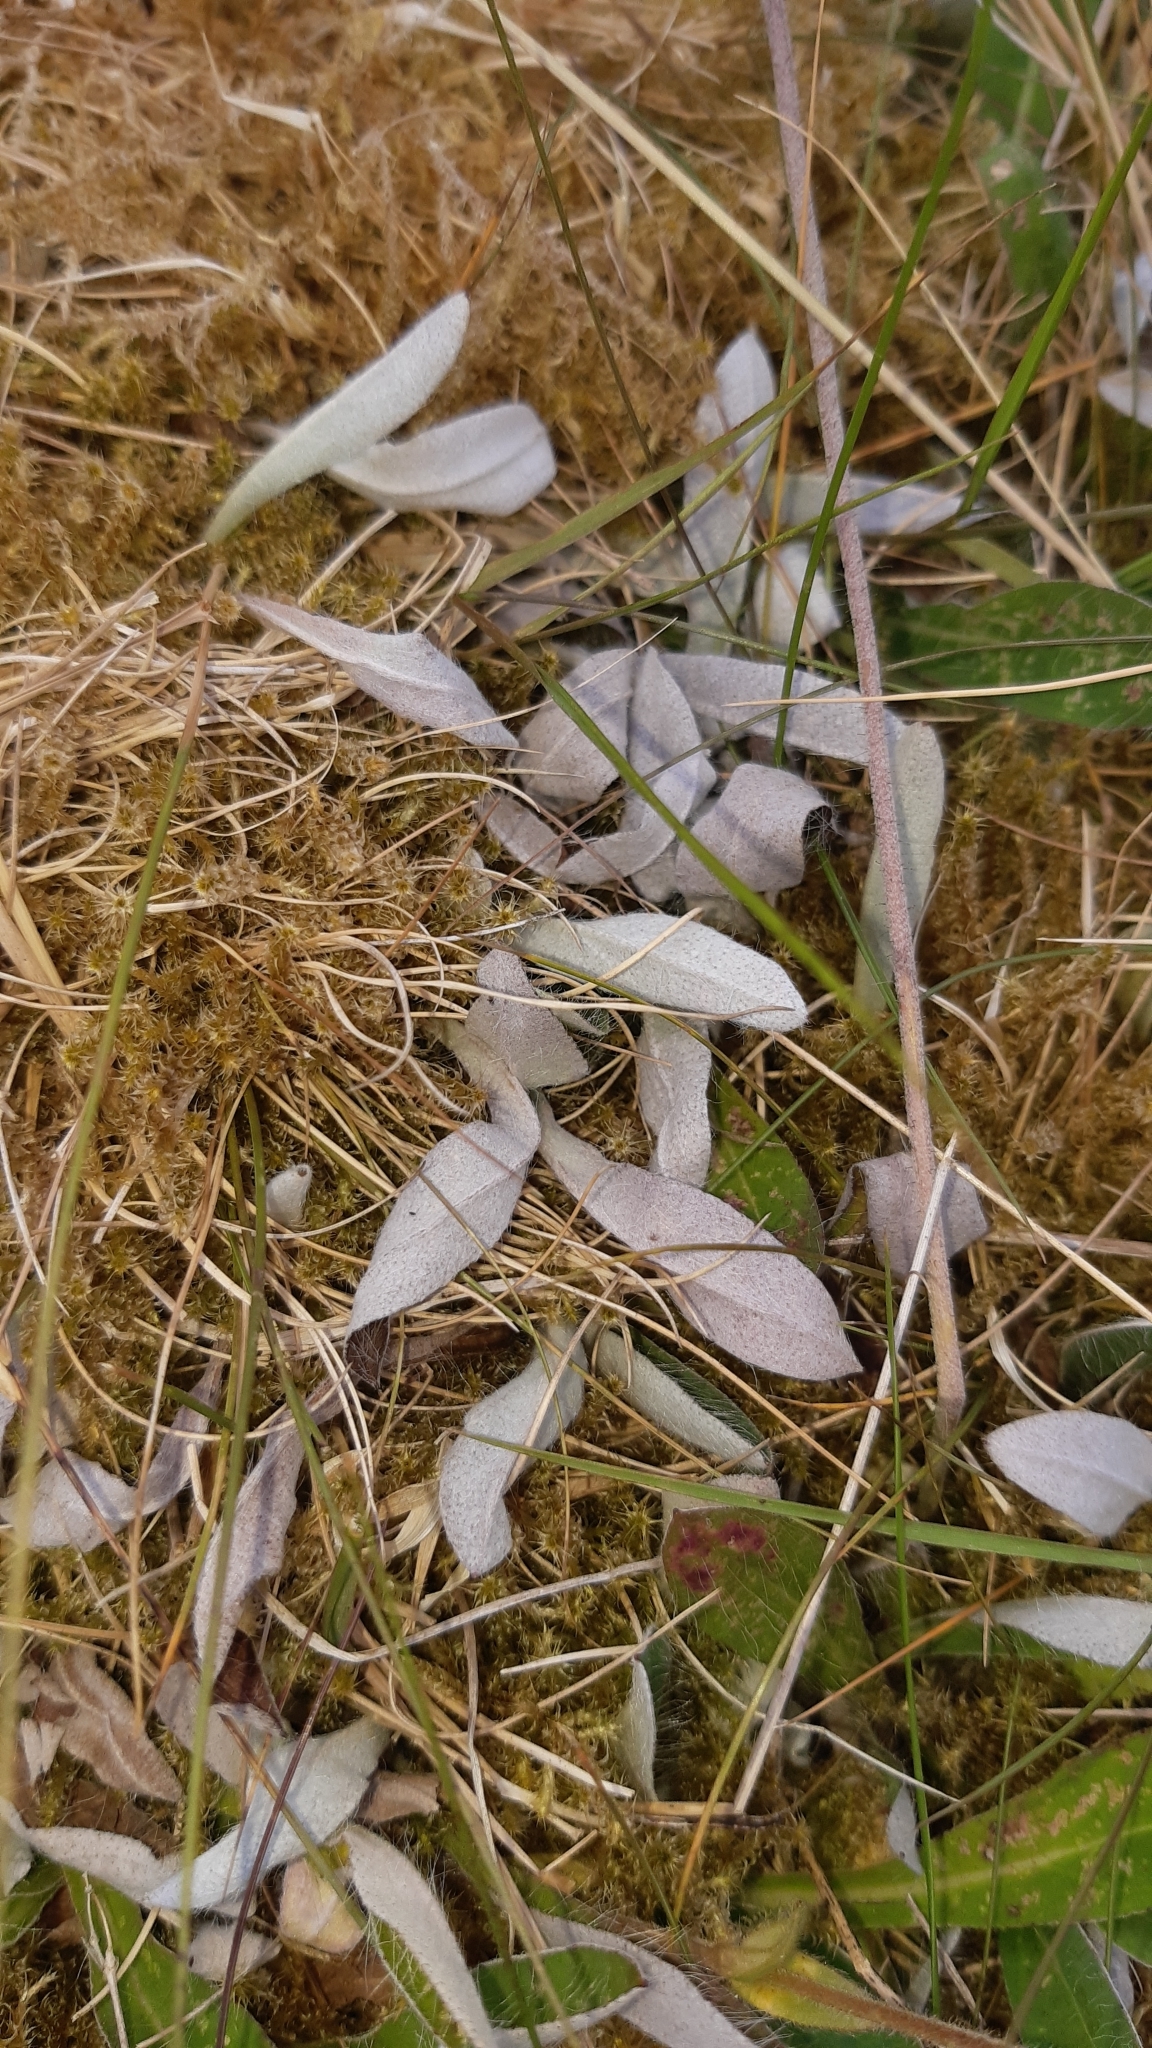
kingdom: Plantae
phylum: Tracheophyta
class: Magnoliopsida
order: Asterales
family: Asteraceae
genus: Pilosella
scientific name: Pilosella officinarum
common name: Mouse-ear hawkweed
